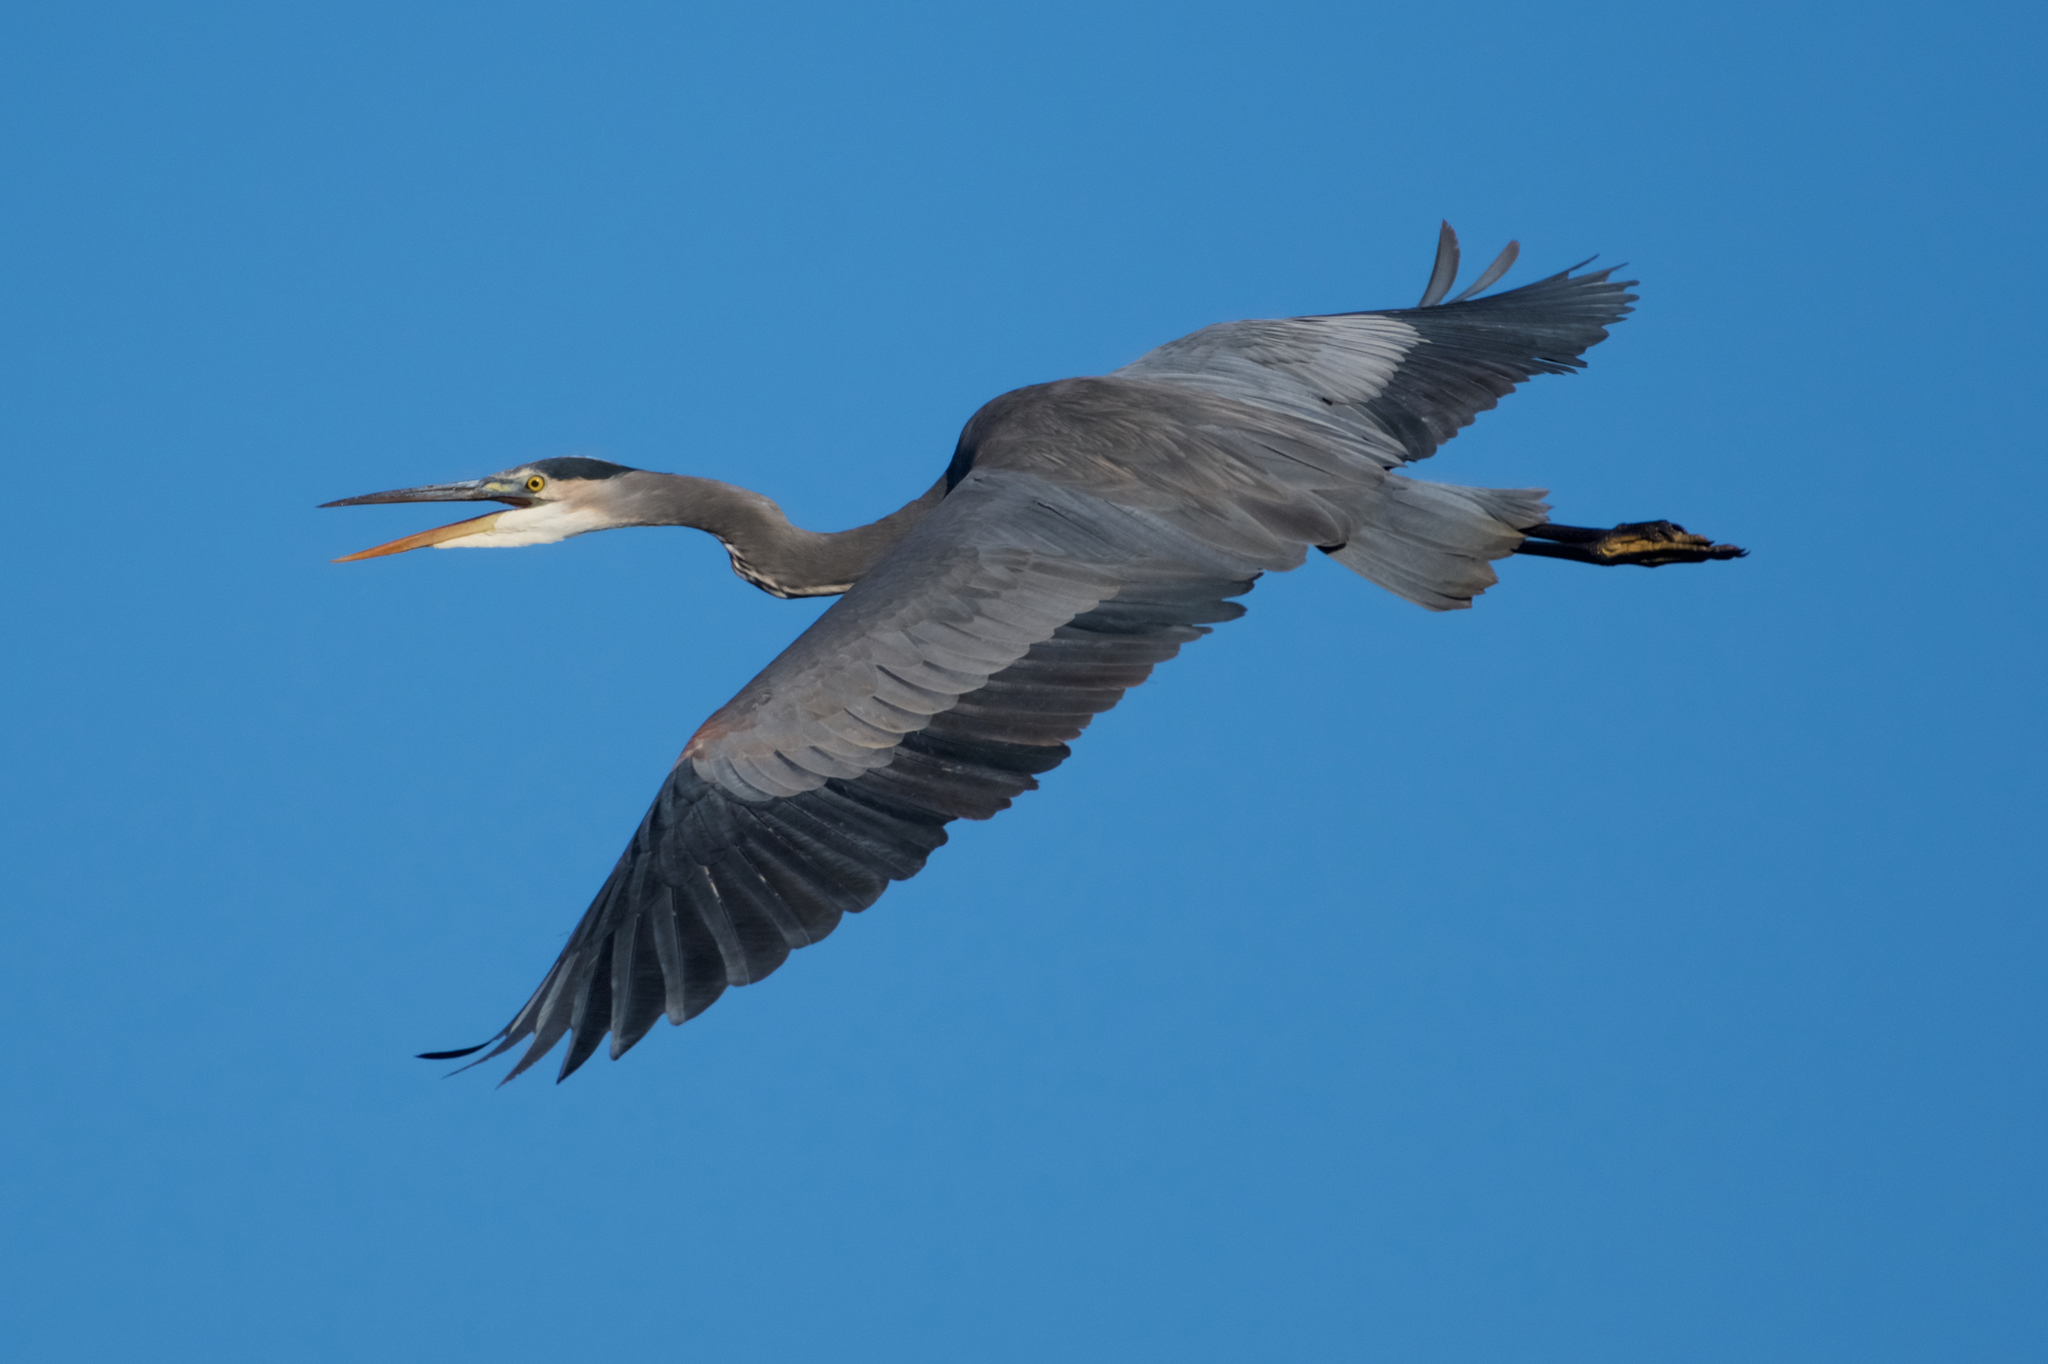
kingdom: Animalia
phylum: Chordata
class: Aves
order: Pelecaniformes
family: Ardeidae
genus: Ardea
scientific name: Ardea herodias
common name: Great blue heron
